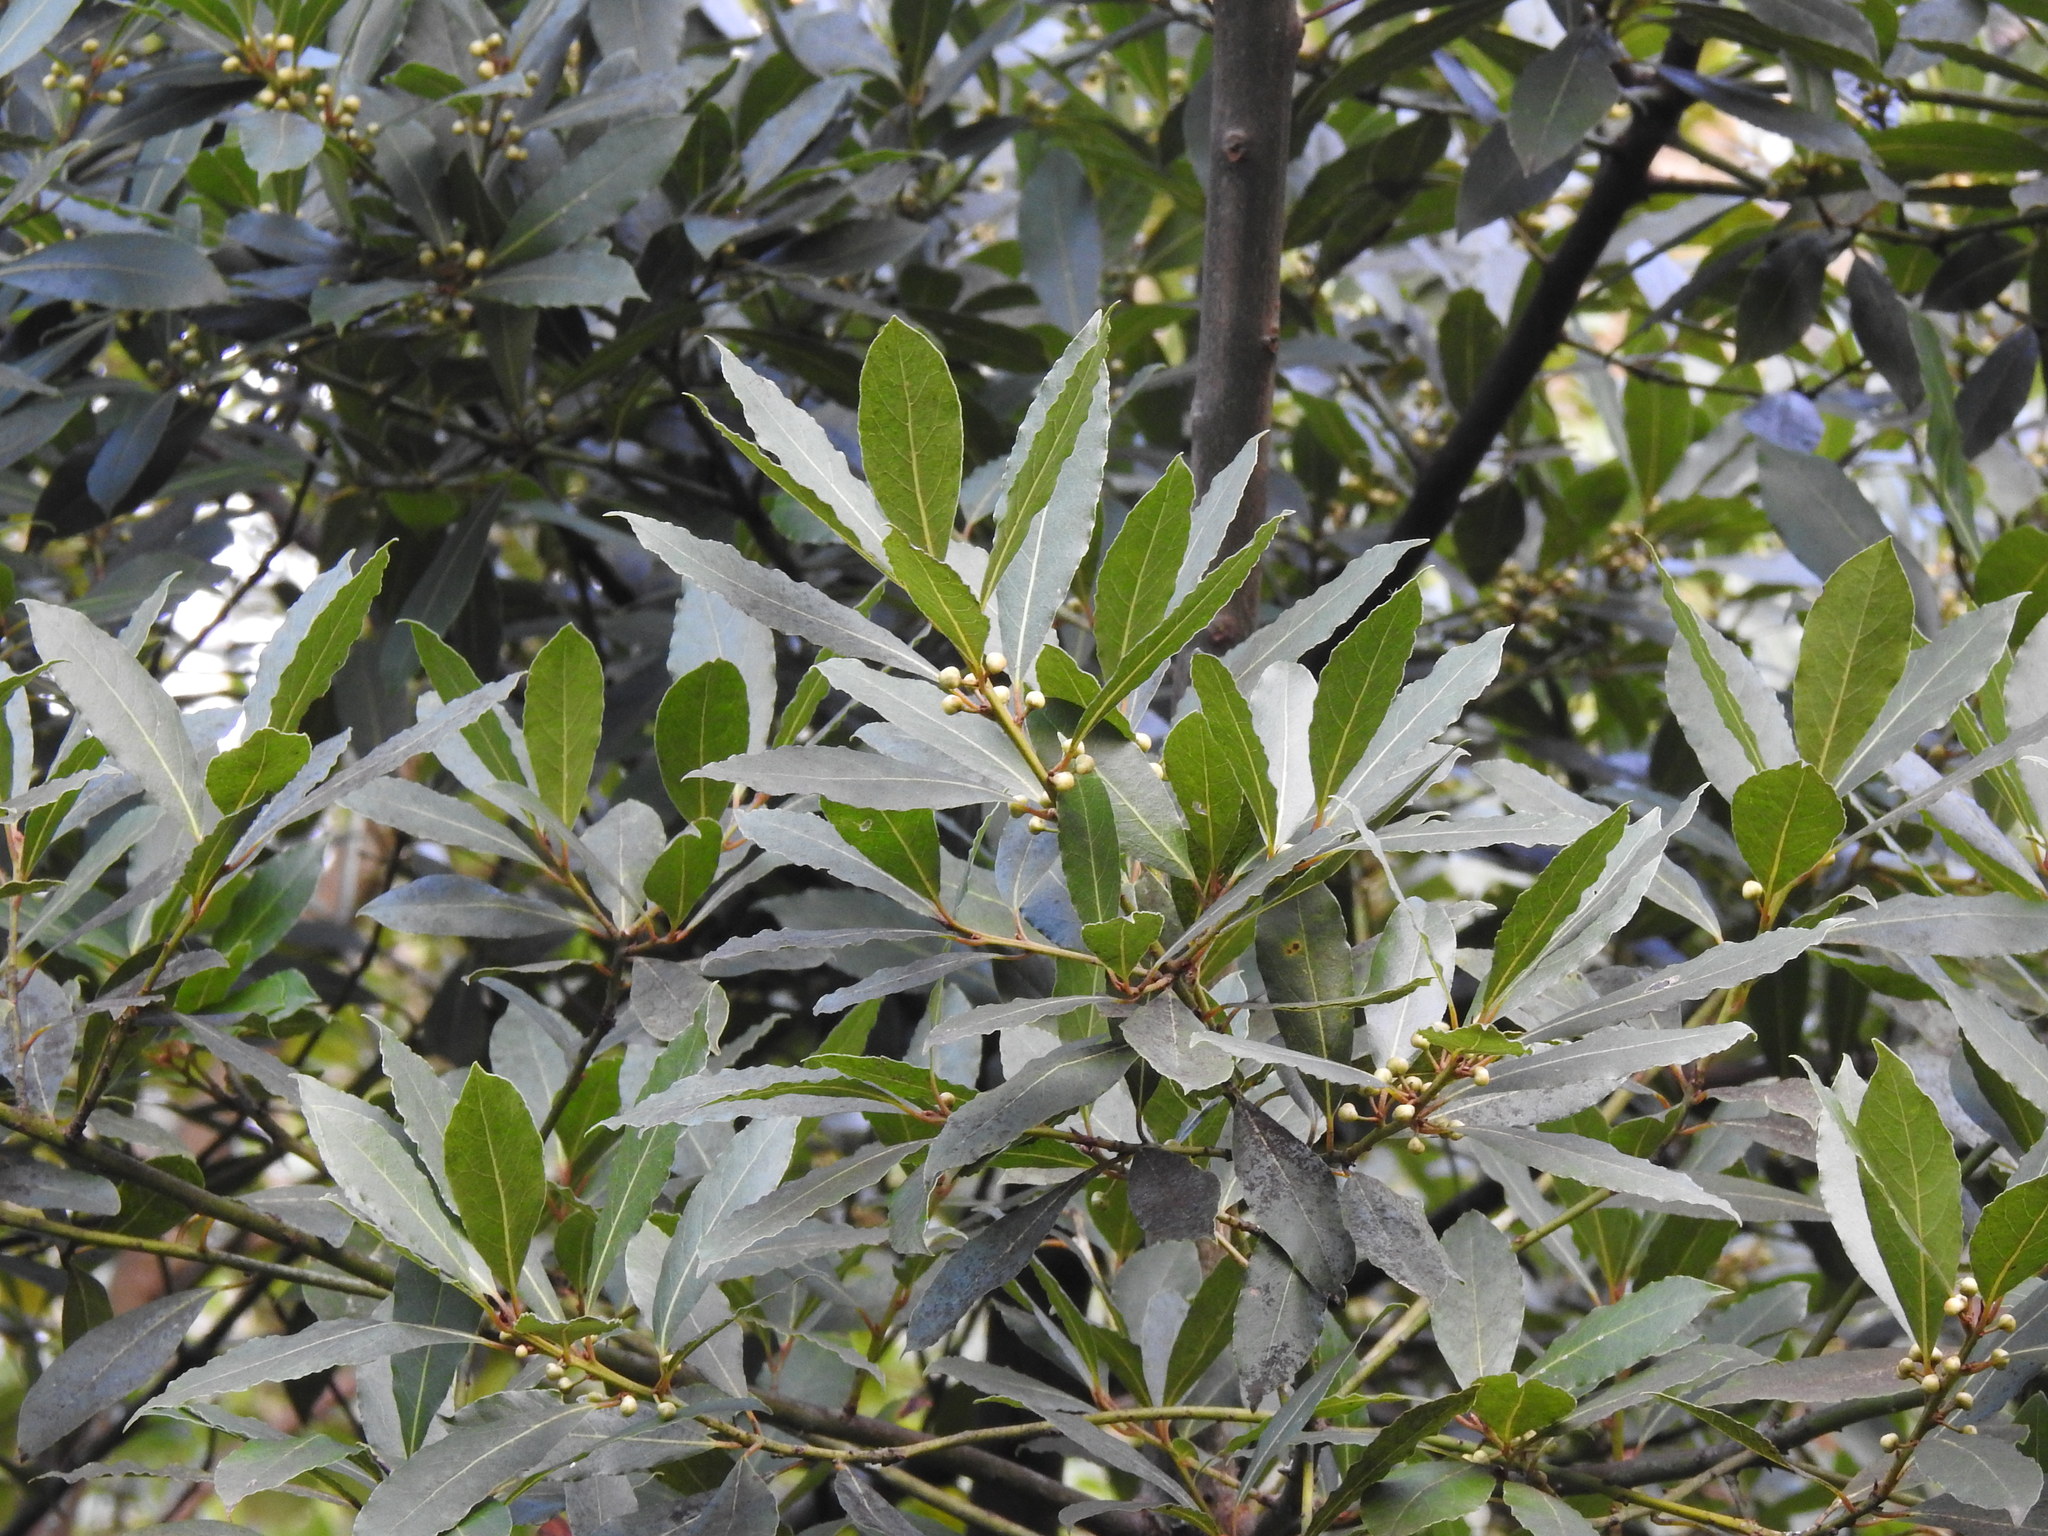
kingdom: Plantae
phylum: Tracheophyta
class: Magnoliopsida
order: Laurales
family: Lauraceae
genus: Laurus
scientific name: Laurus nobilis
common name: Bay
